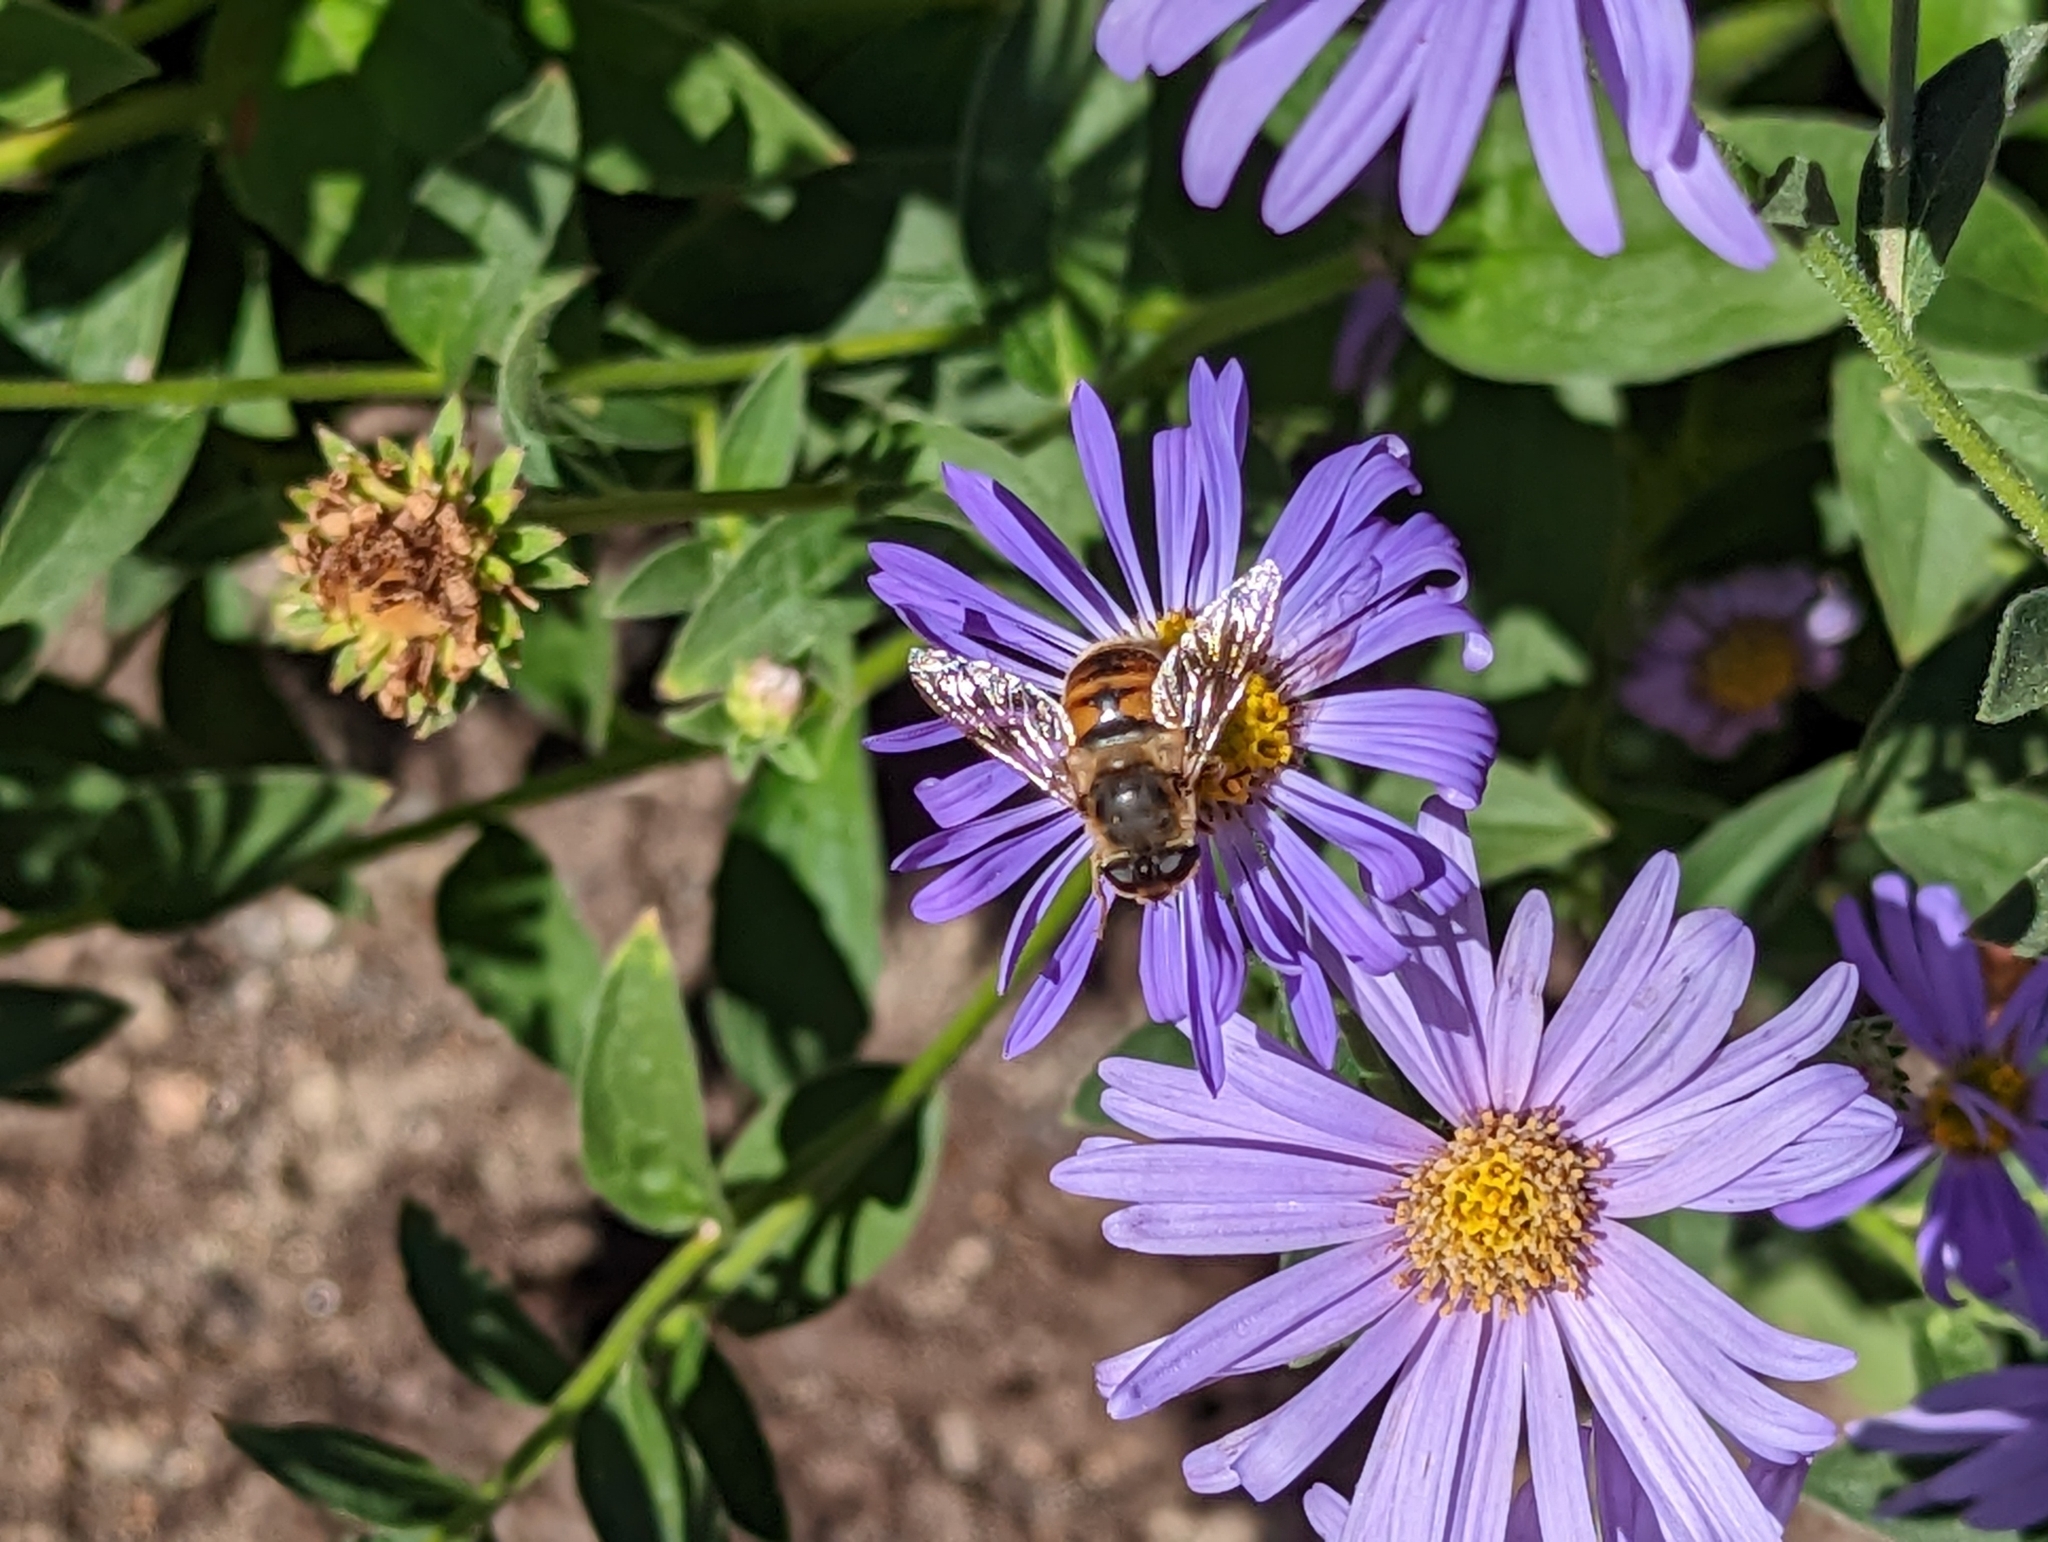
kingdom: Animalia
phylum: Arthropoda
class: Insecta
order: Diptera
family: Syrphidae
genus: Eristalis
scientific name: Eristalis tenax
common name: Drone fly
